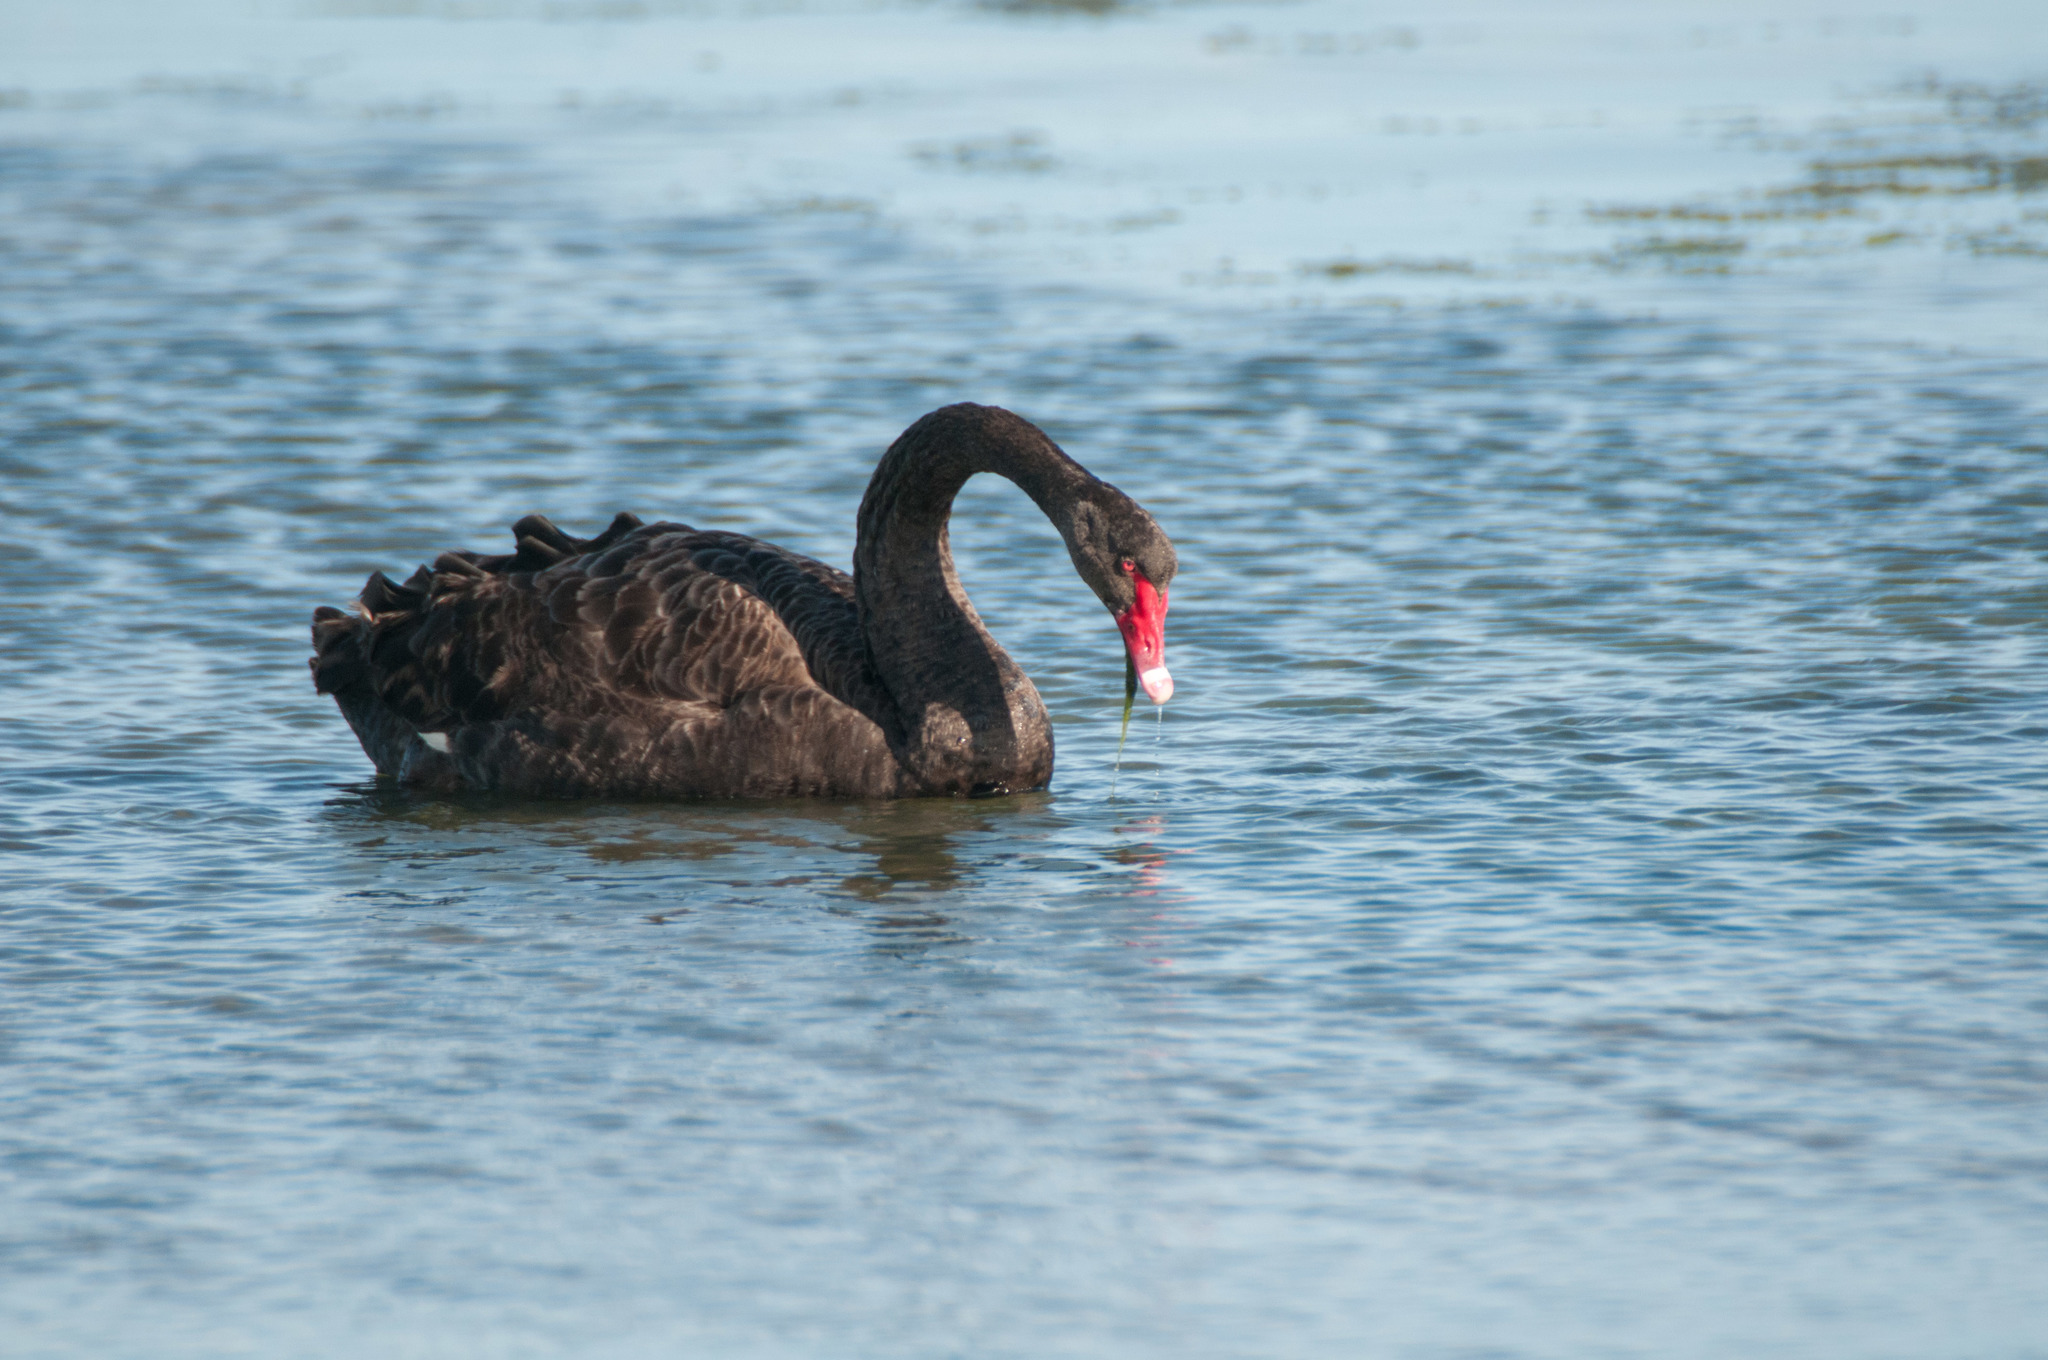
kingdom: Animalia
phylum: Chordata
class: Aves
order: Anseriformes
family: Anatidae
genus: Cygnus
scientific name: Cygnus atratus
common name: Black swan
